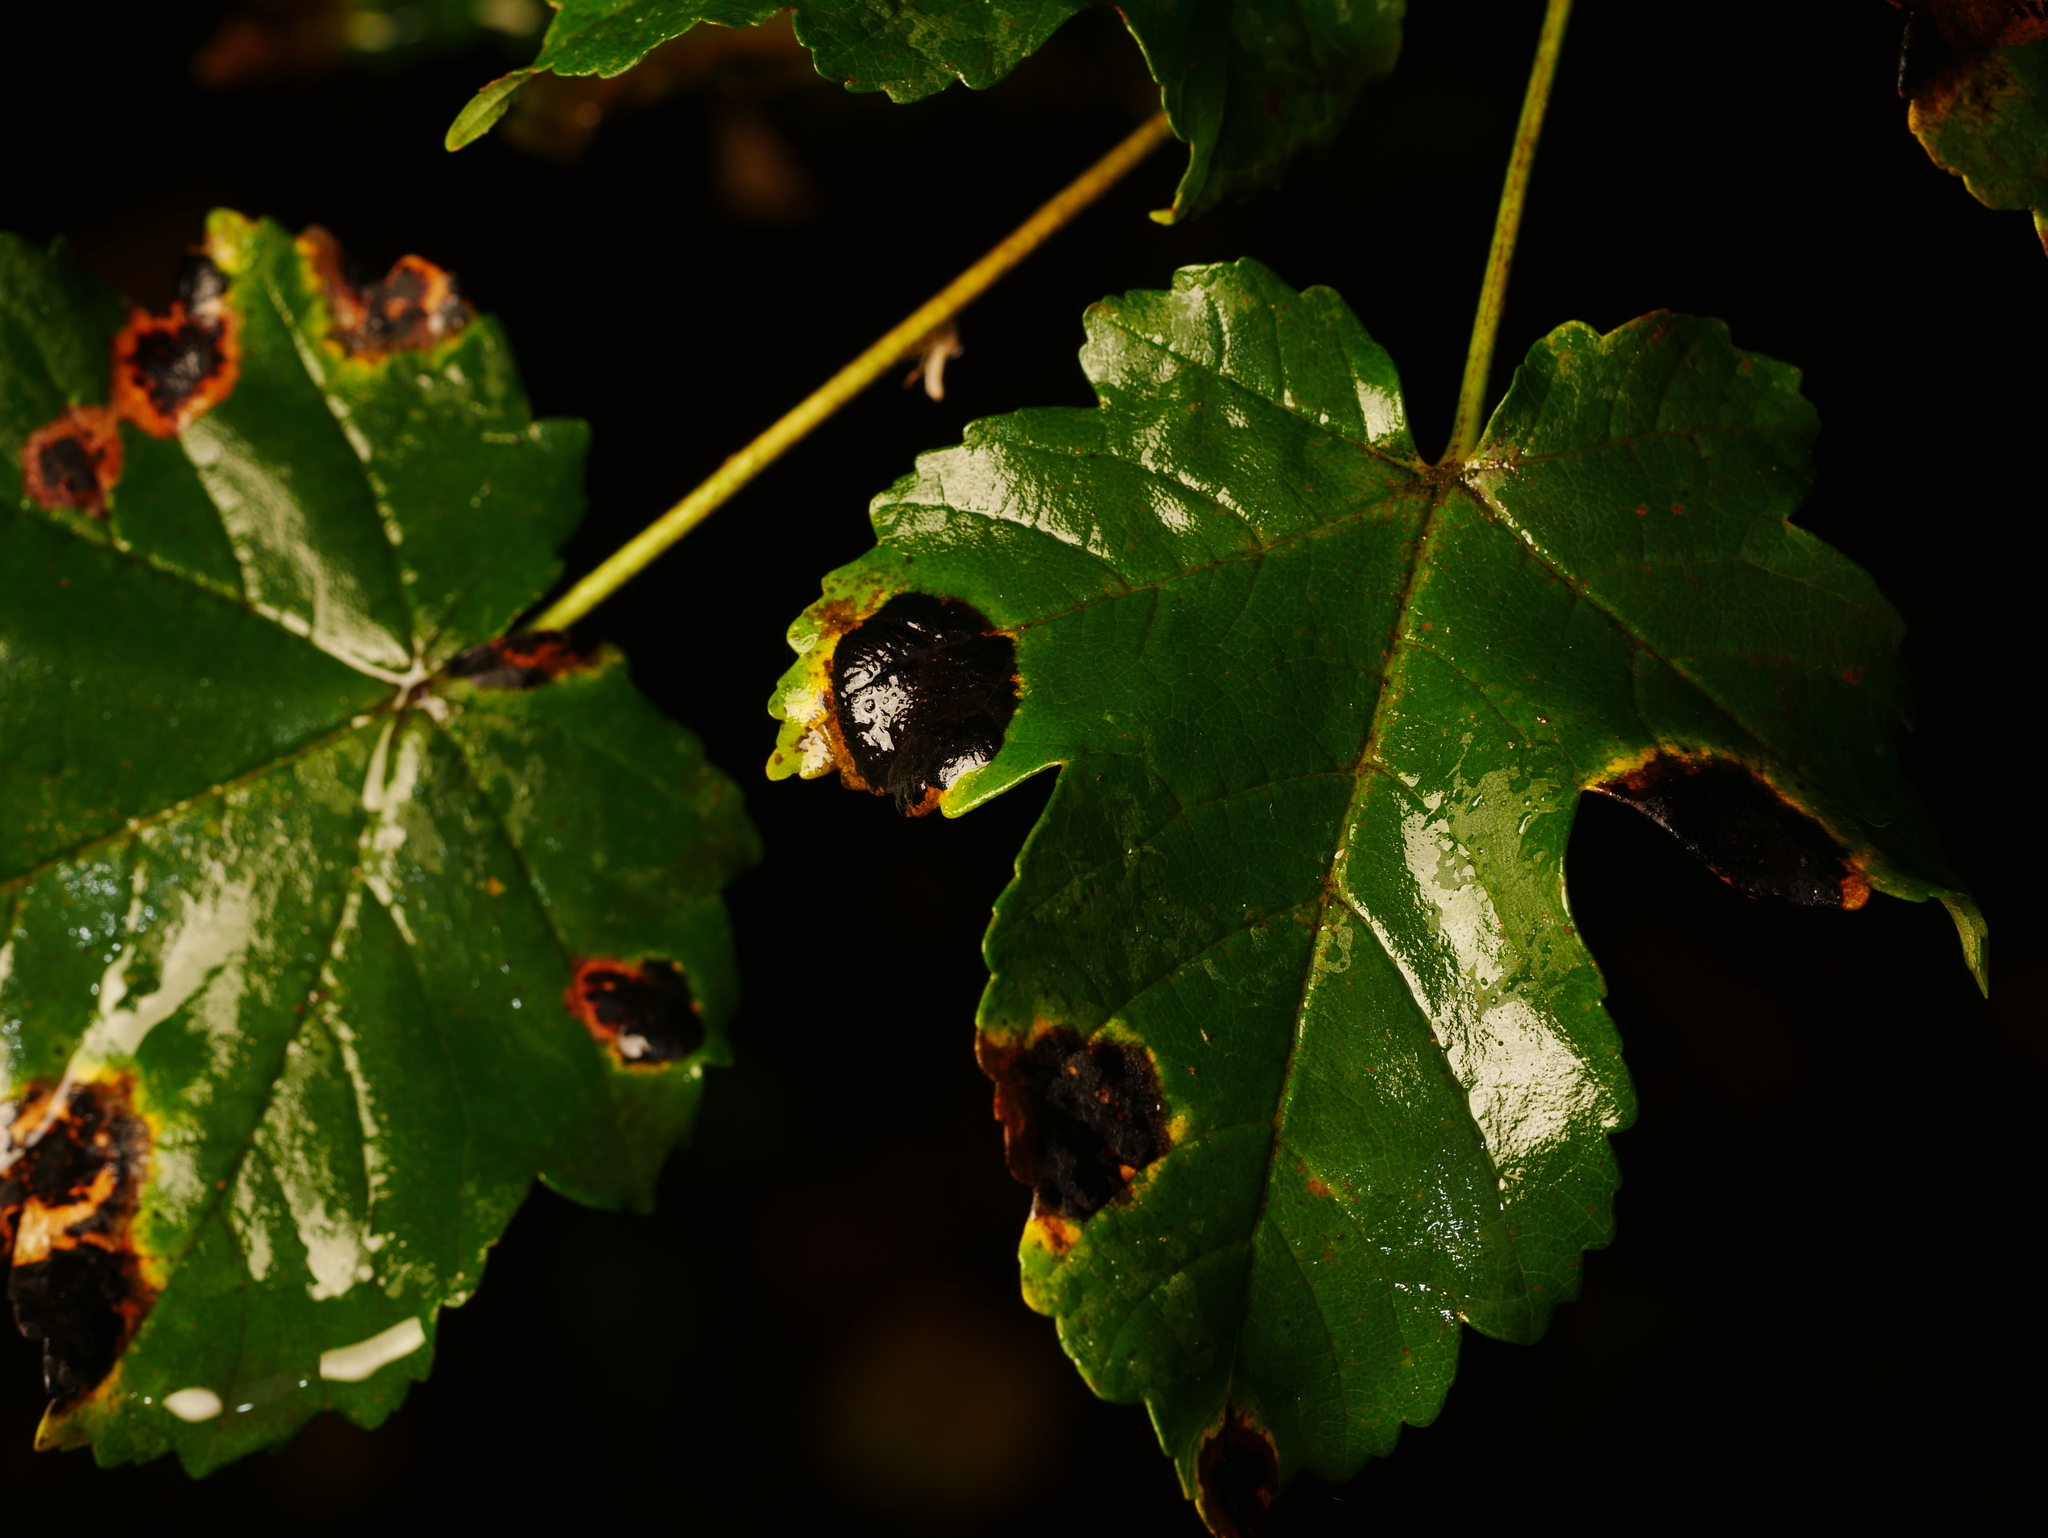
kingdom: Fungi
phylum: Ascomycota
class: Leotiomycetes
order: Rhytismatales
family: Rhytismataceae
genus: Rhytisma
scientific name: Rhytisma acerinum
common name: European tar spot
